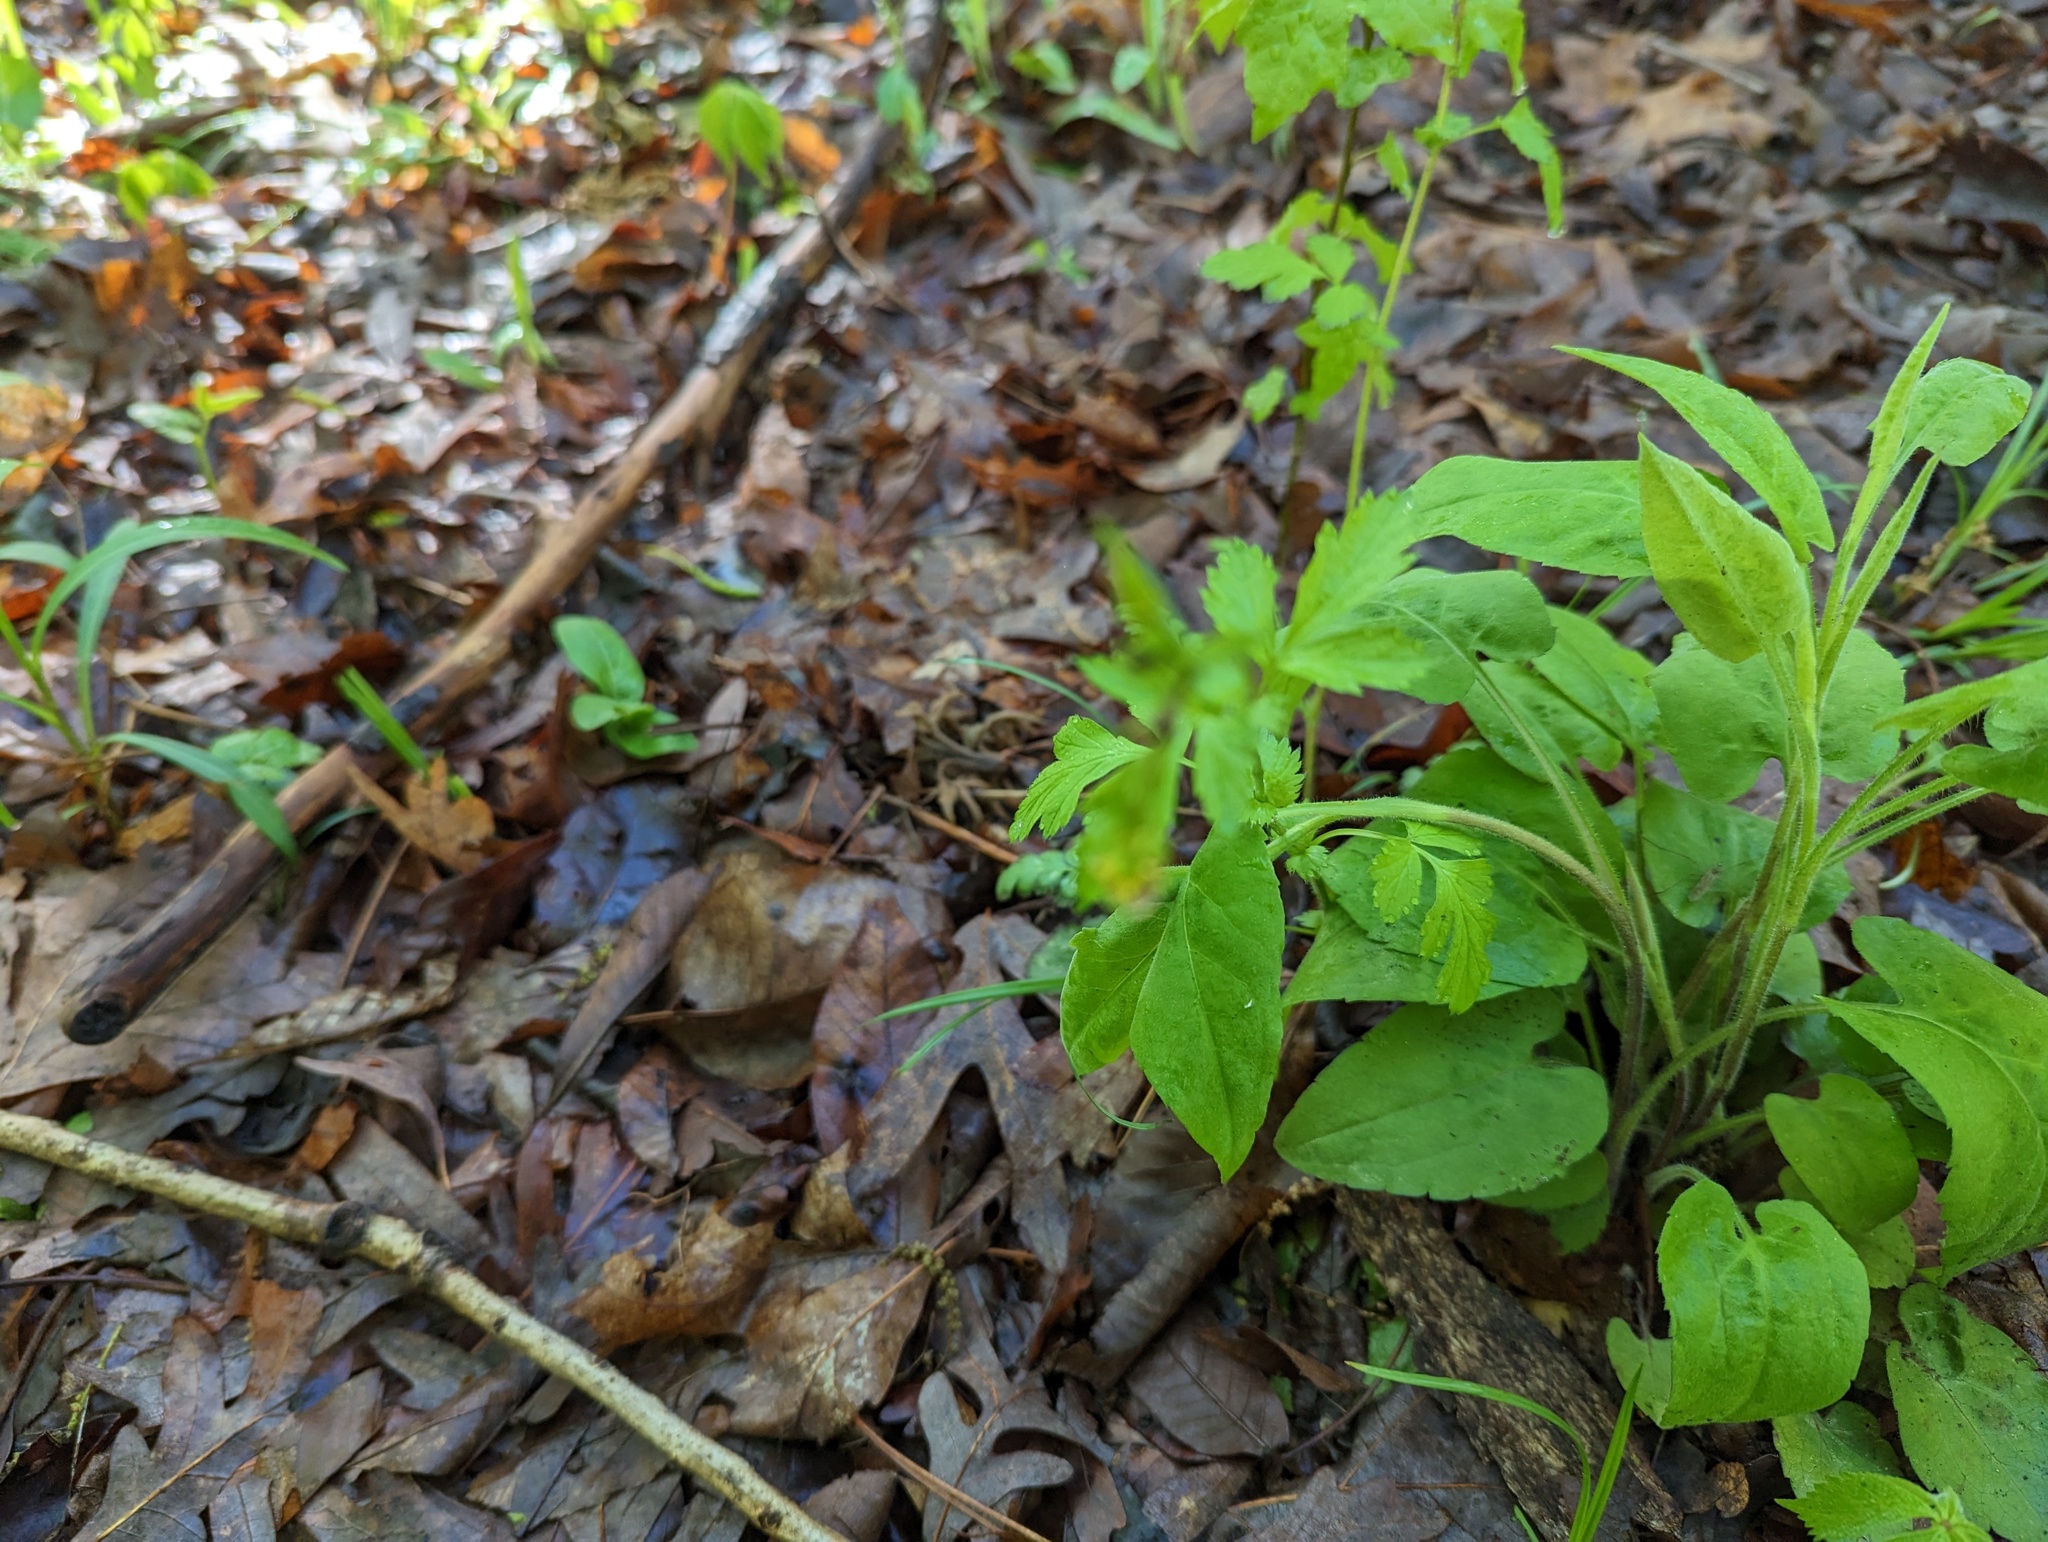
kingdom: Plantae
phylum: Tracheophyta
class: Magnoliopsida
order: Rosales
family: Rosaceae
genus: Geum
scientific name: Geum vernum
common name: Spring avens
